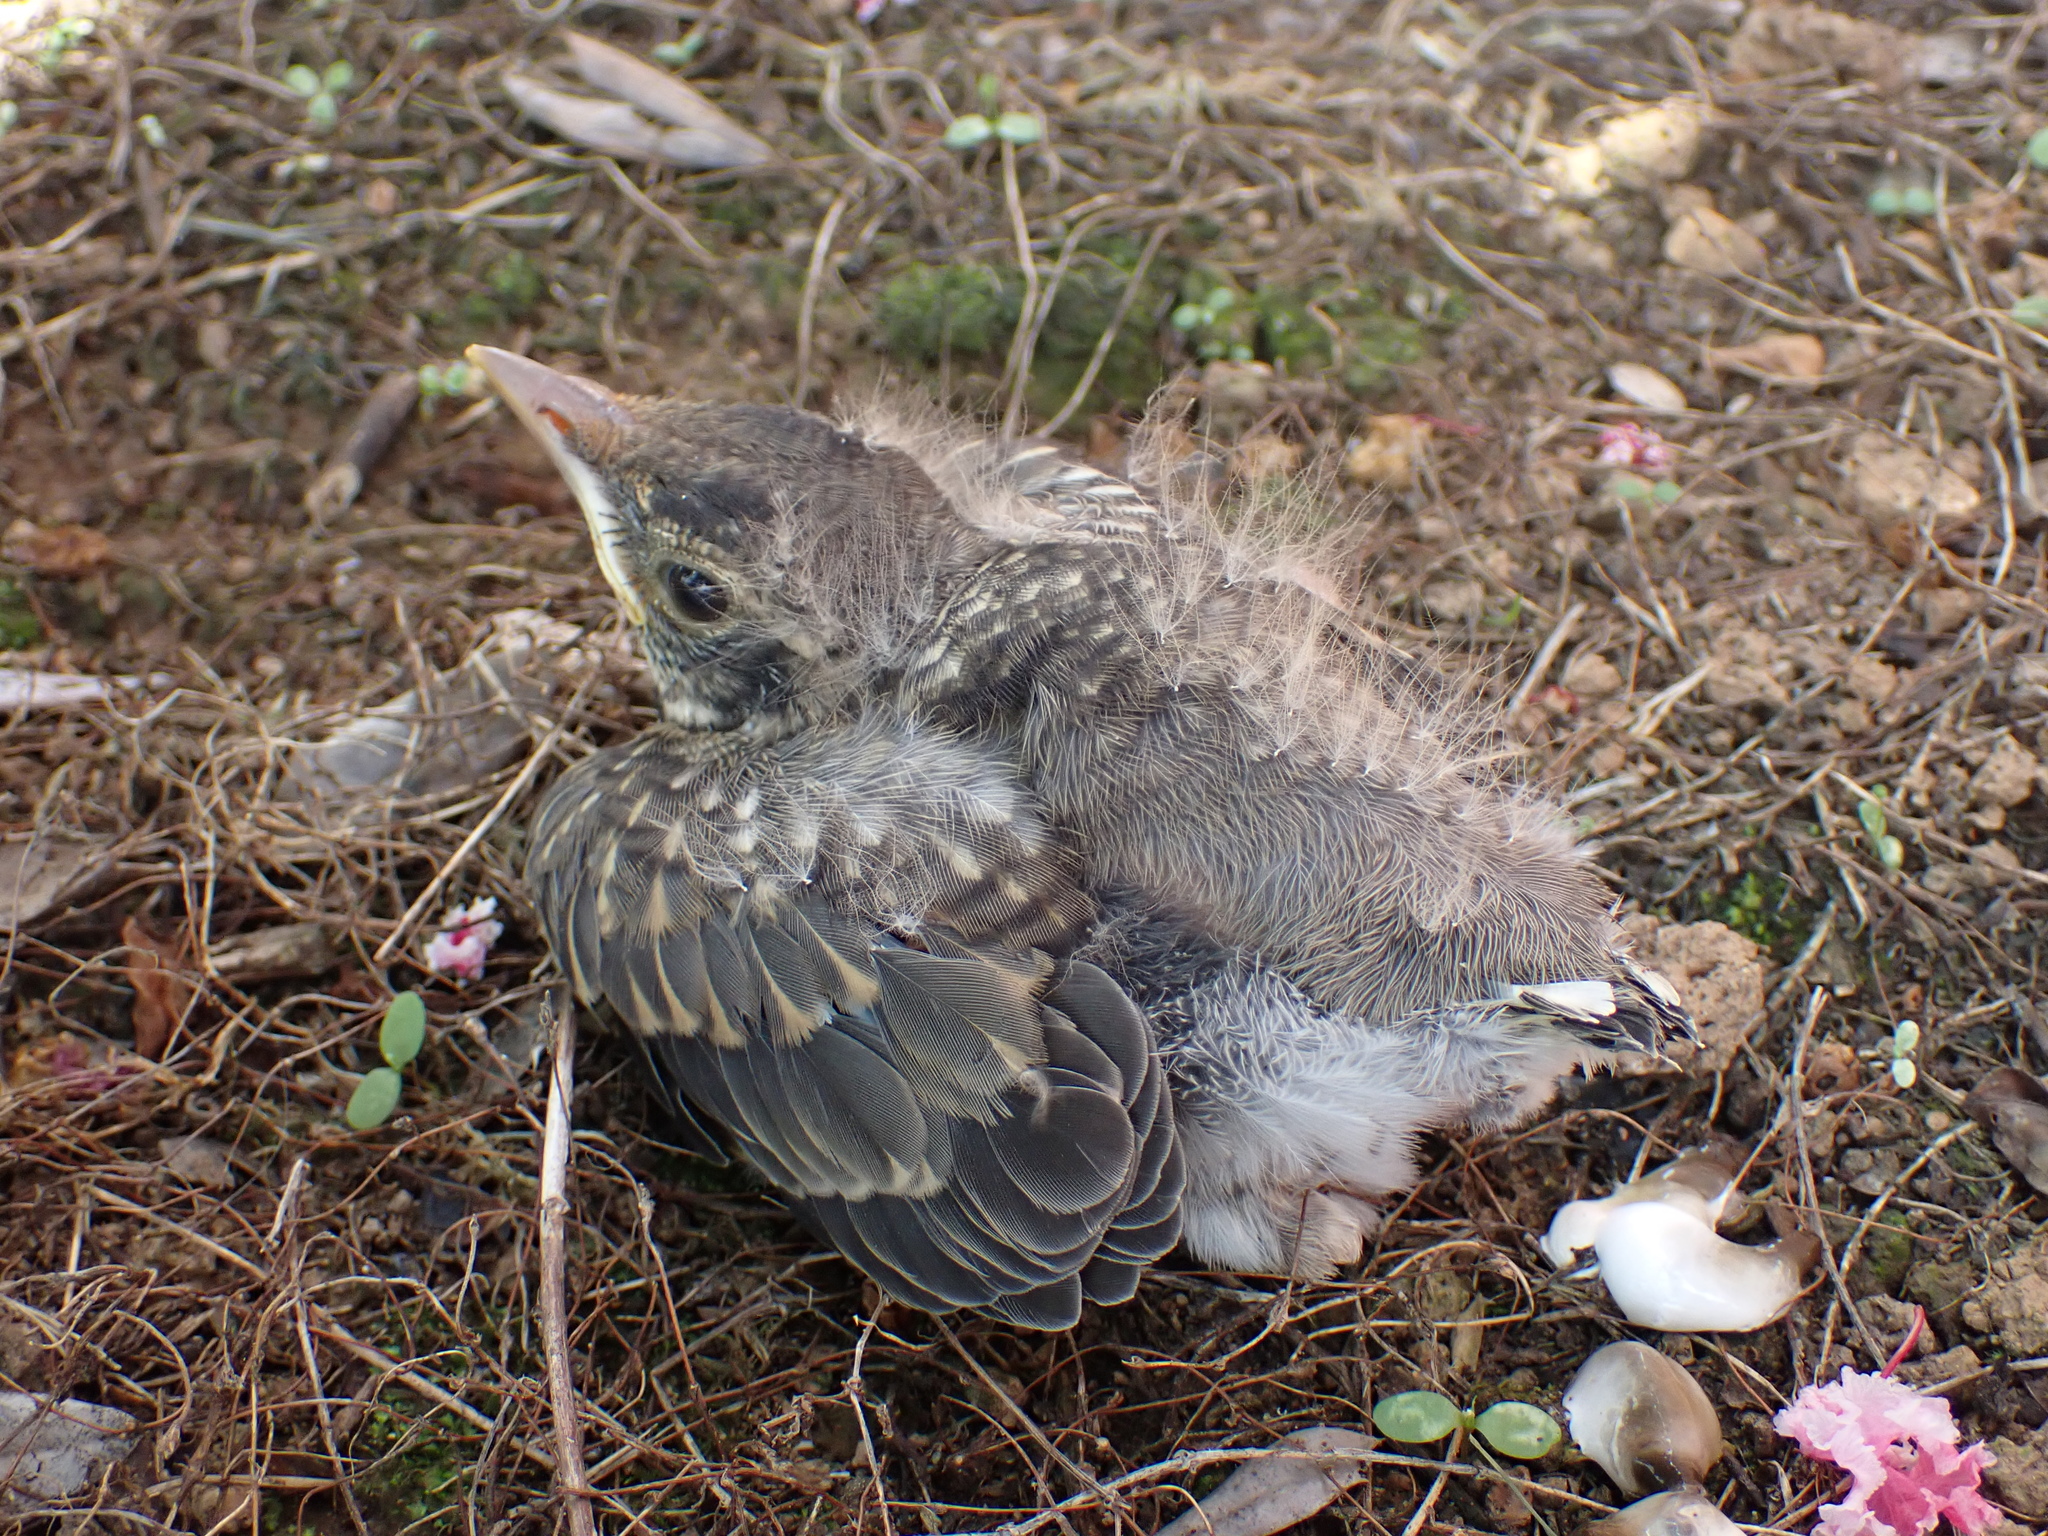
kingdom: Animalia
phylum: Chordata
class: Aves
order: Passeriformes
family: Turdidae
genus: Turdus
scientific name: Turdus migratorius
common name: American robin
